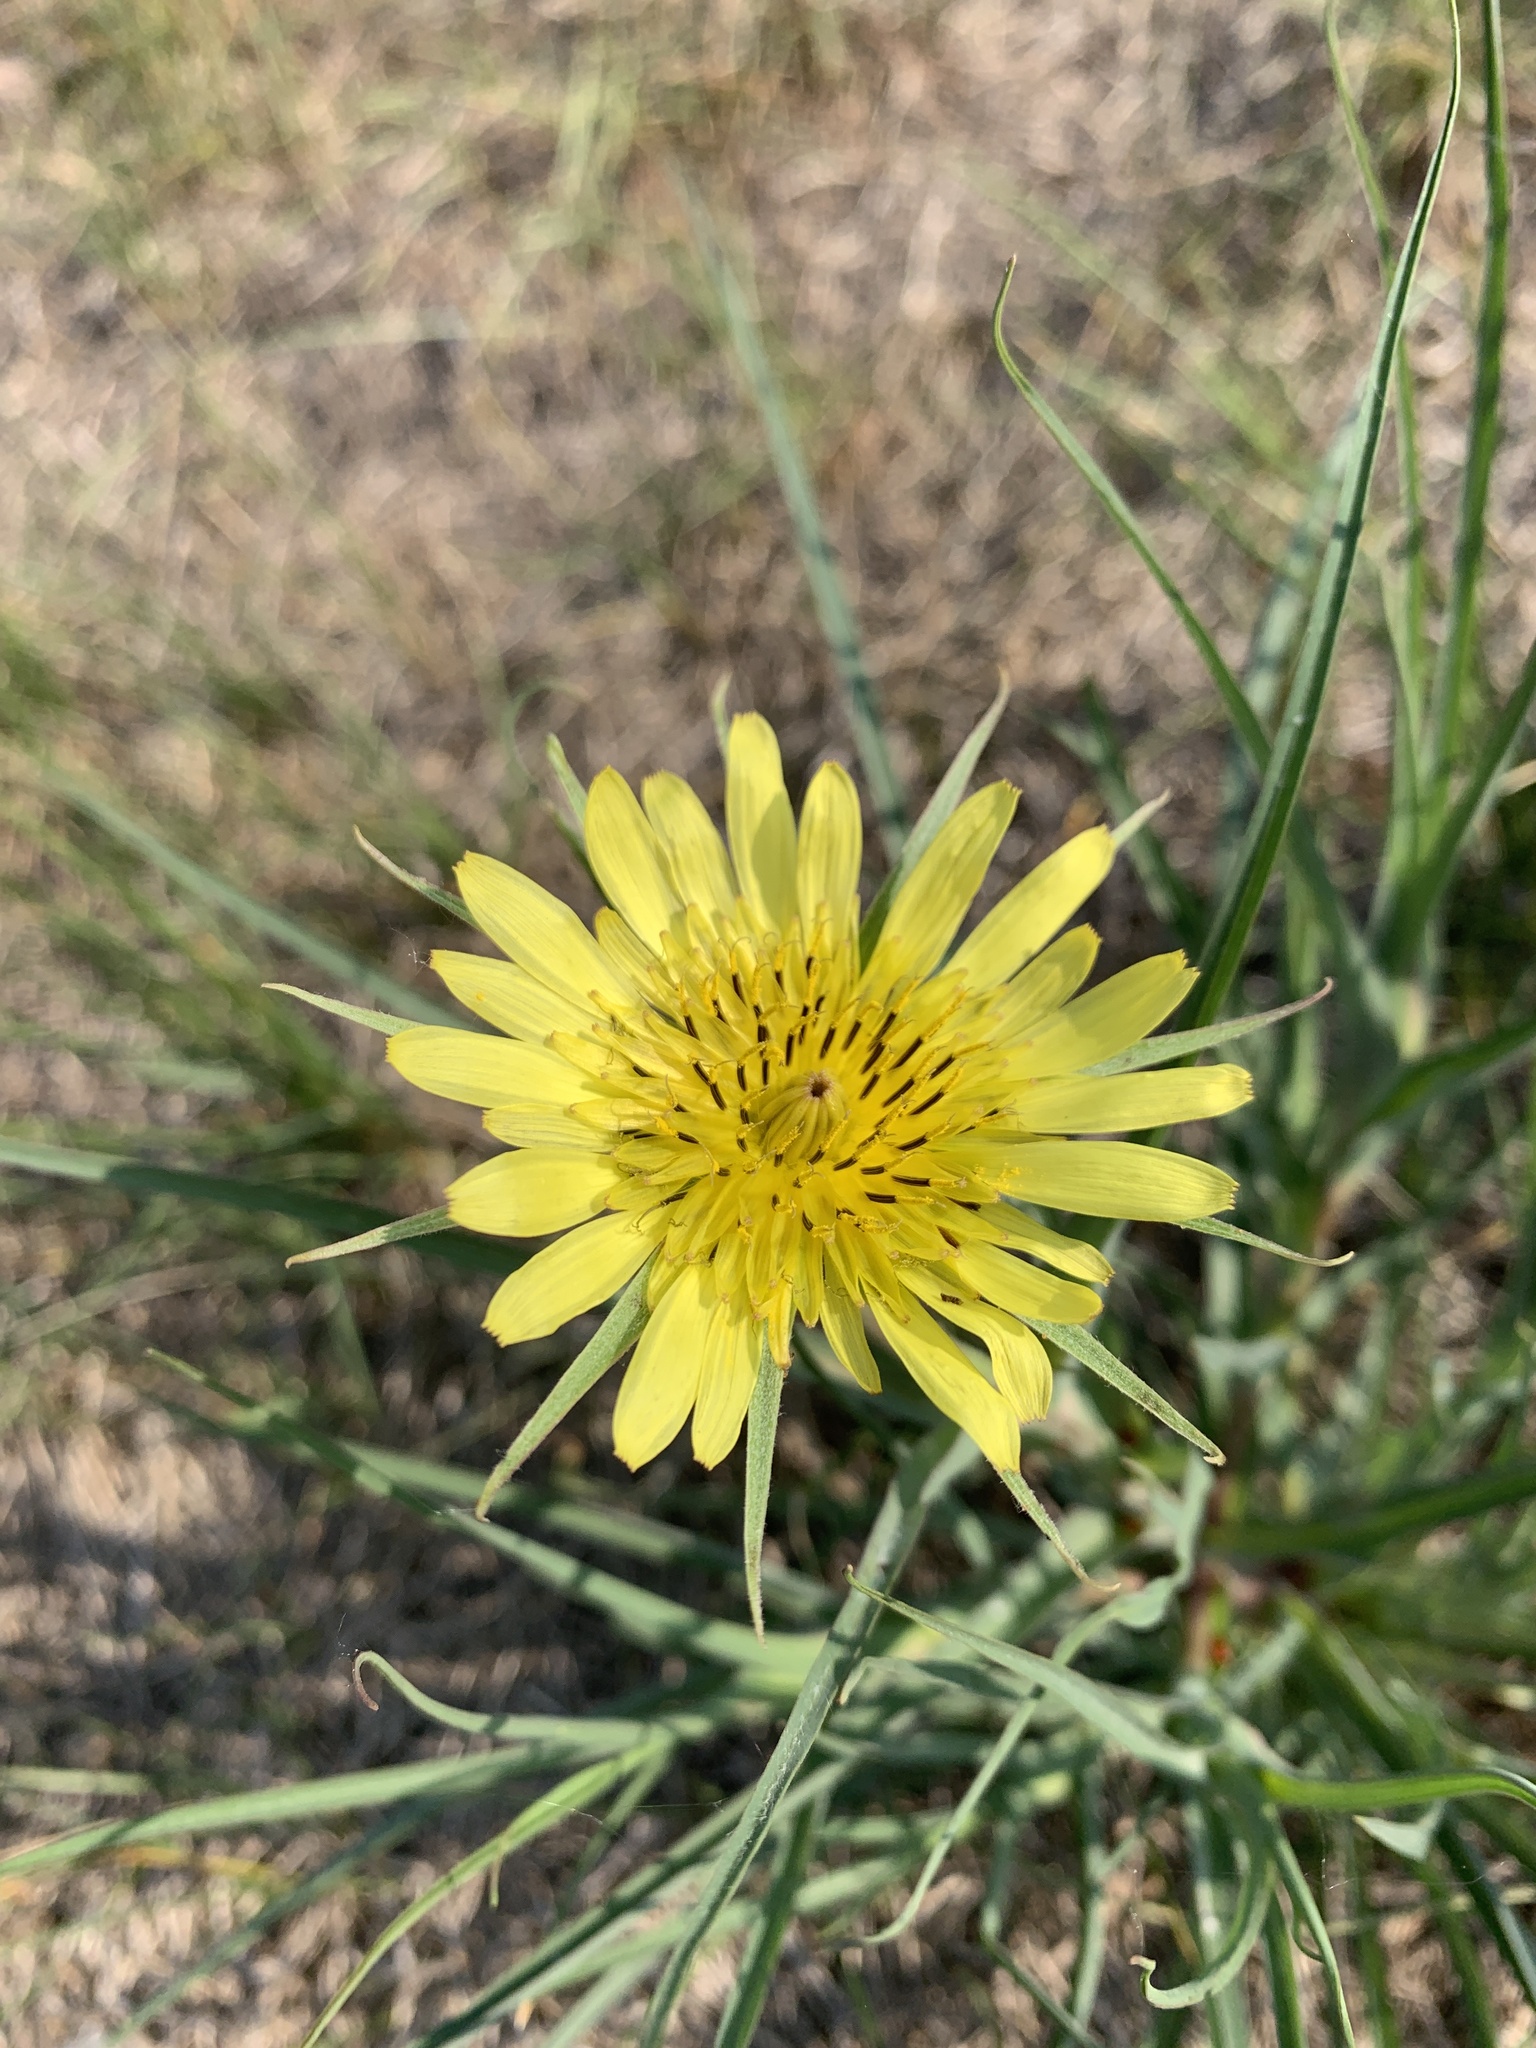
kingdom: Plantae
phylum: Tracheophyta
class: Magnoliopsida
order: Asterales
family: Asteraceae
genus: Tragopogon
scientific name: Tragopogon dubius
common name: Yellow salsify
